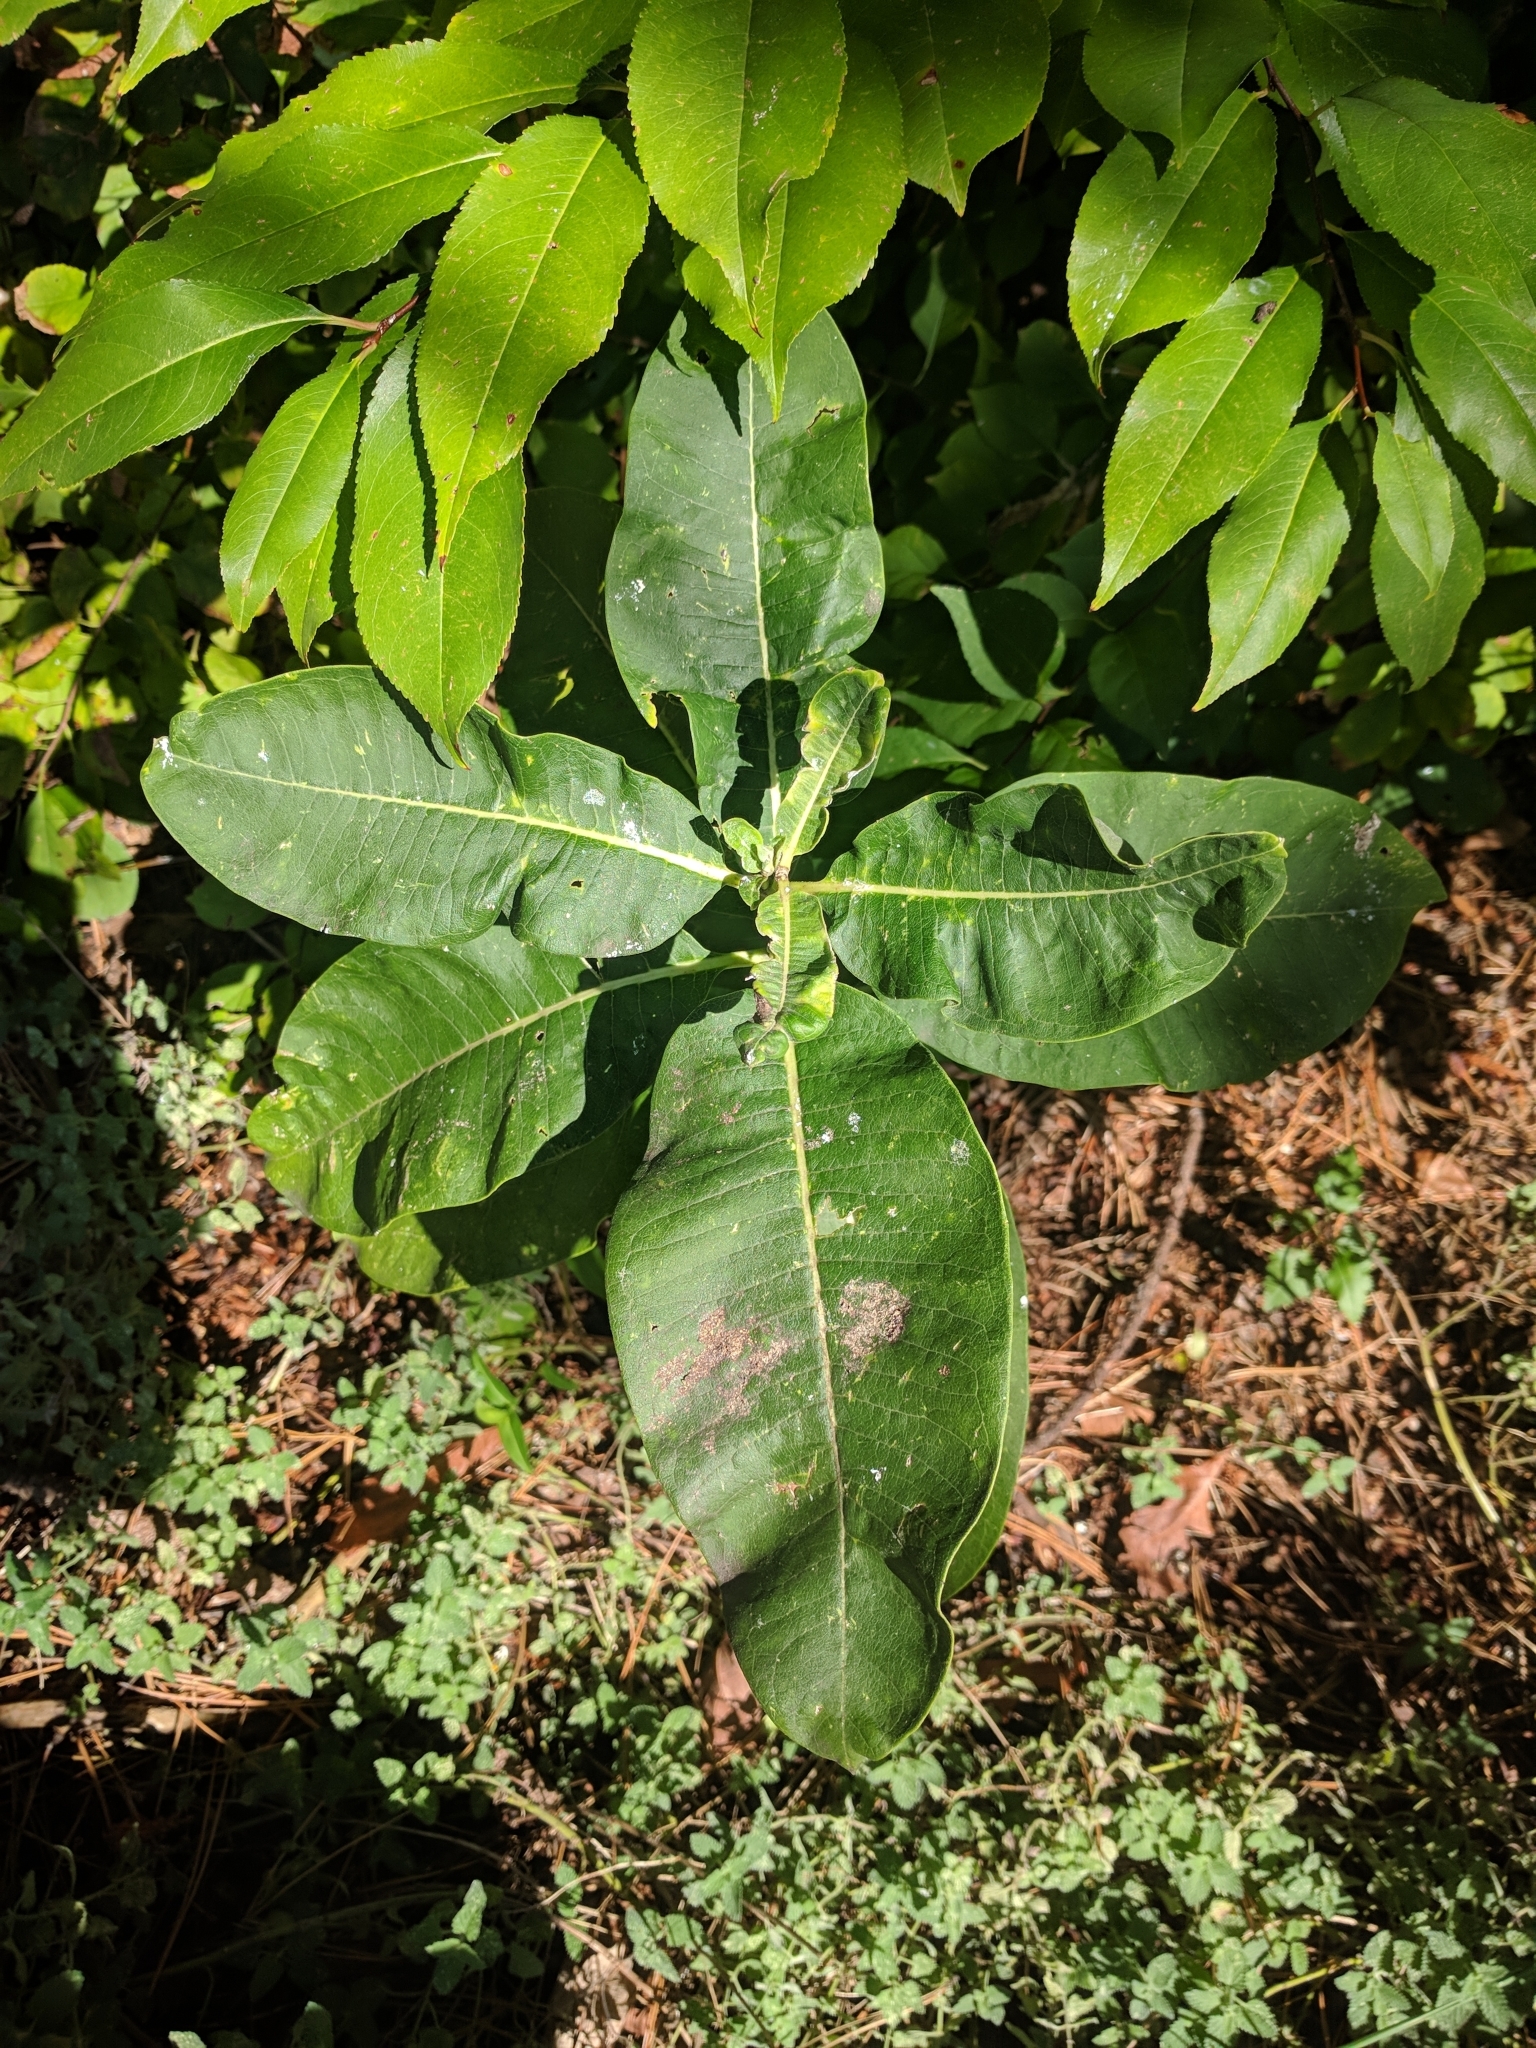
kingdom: Plantae
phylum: Tracheophyta
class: Magnoliopsida
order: Gentianales
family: Apocynaceae
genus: Asclepias
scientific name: Asclepias syriaca
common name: Common milkweed
